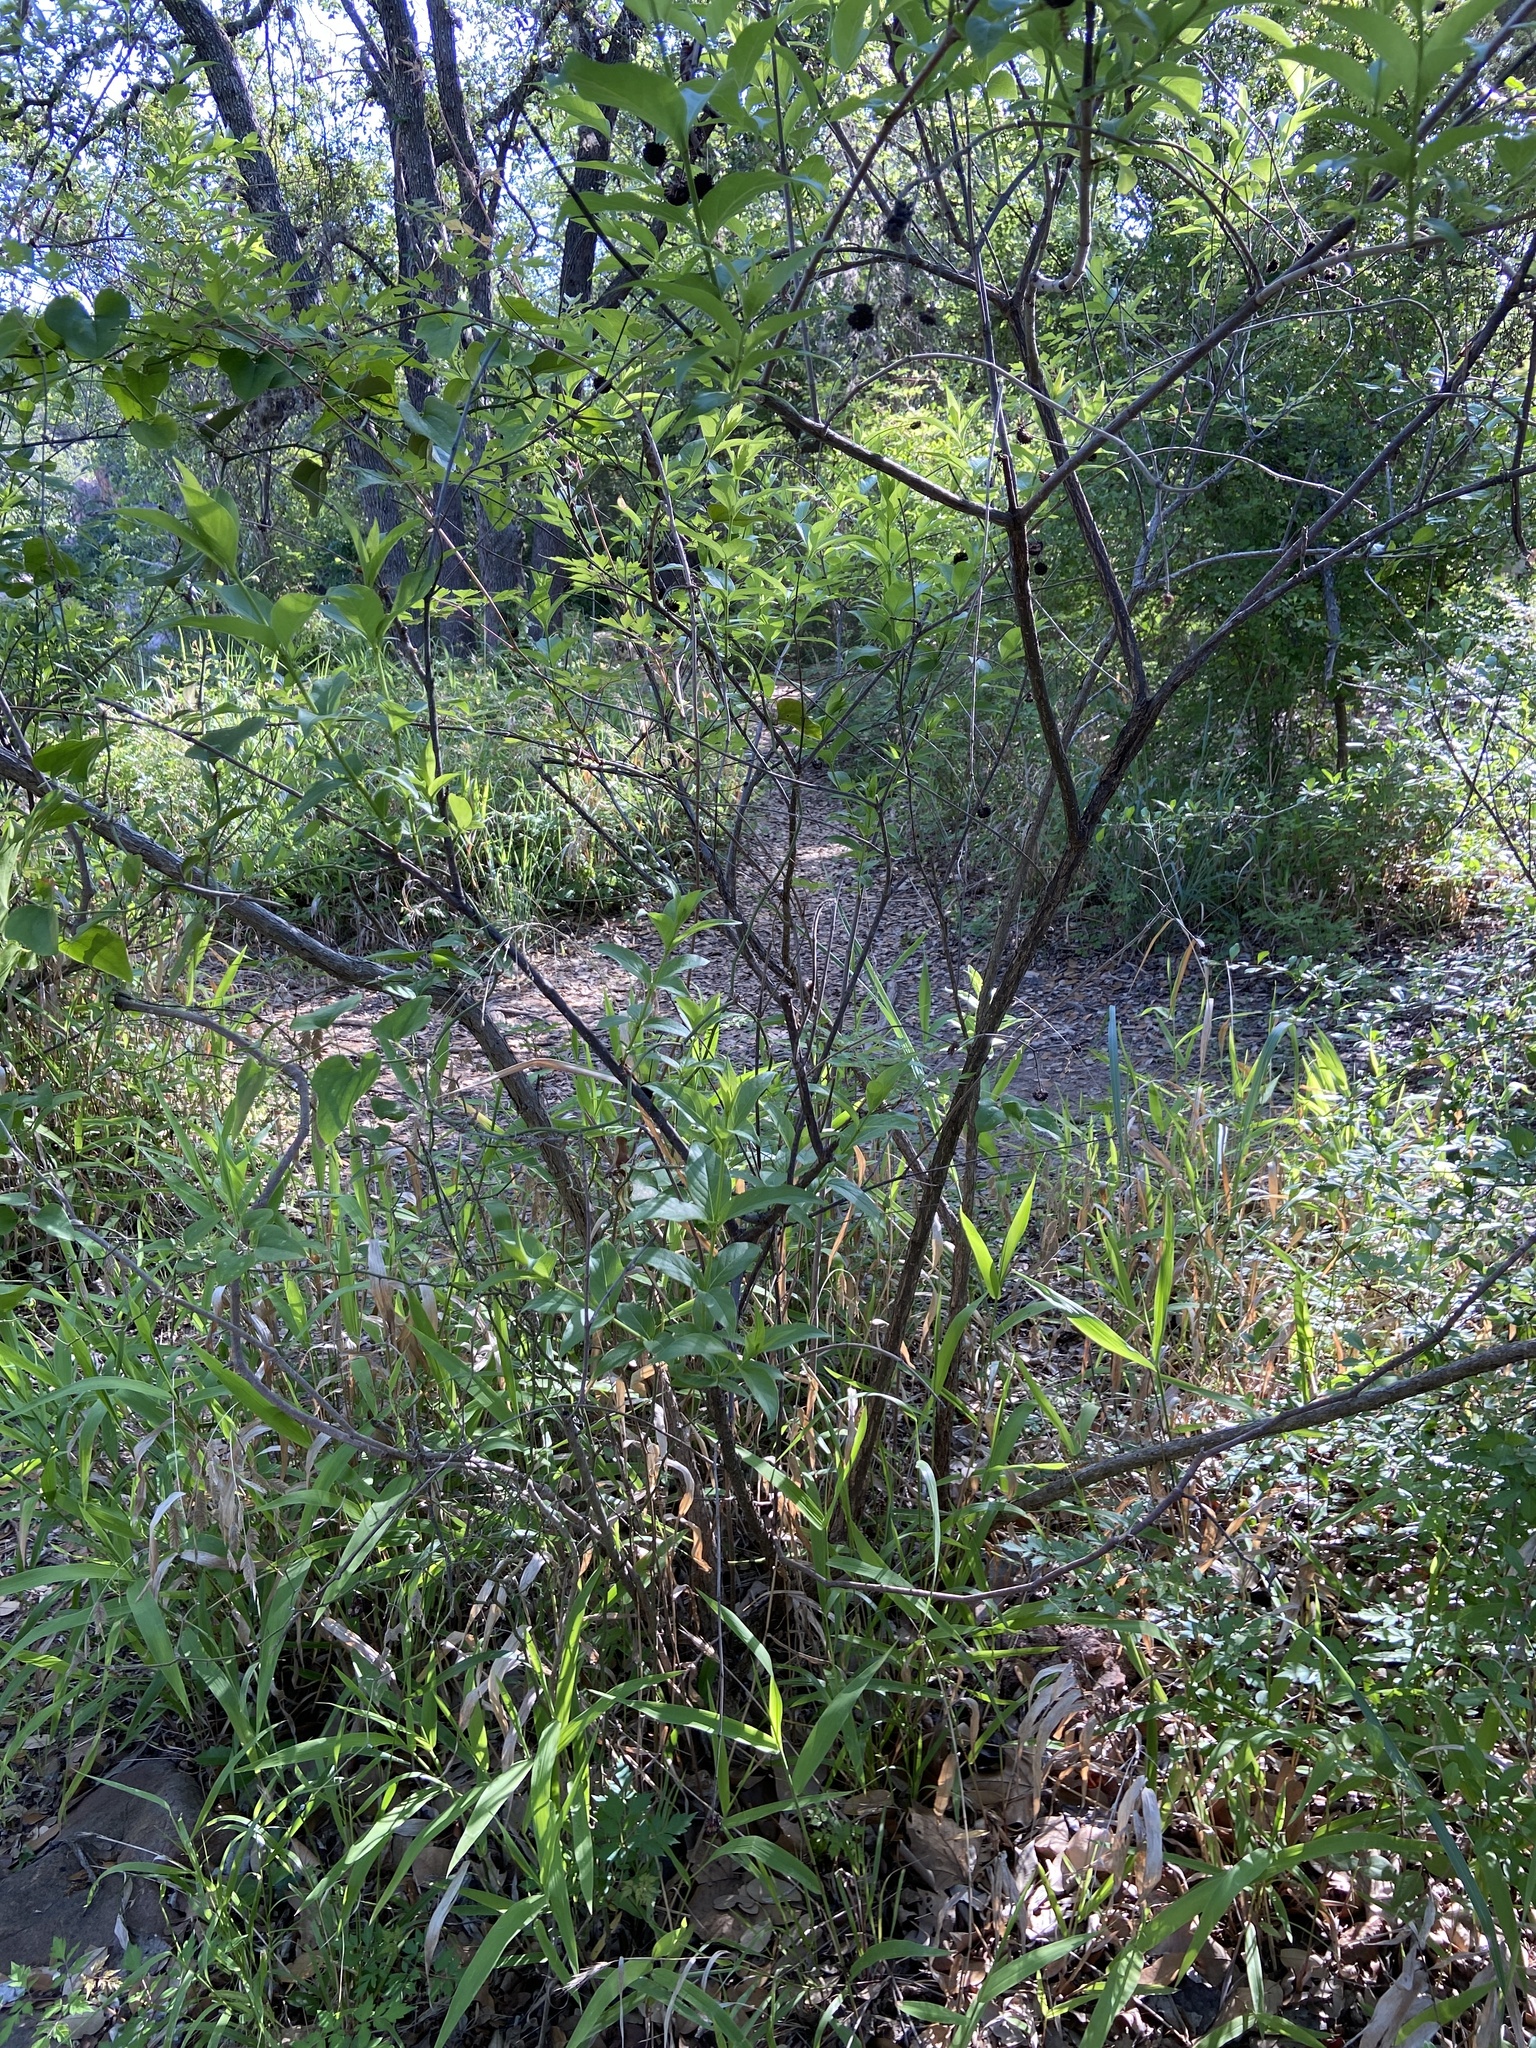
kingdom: Plantae
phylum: Tracheophyta
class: Magnoliopsida
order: Gentianales
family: Rubiaceae
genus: Cephalanthus
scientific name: Cephalanthus occidentalis
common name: Button-willow
